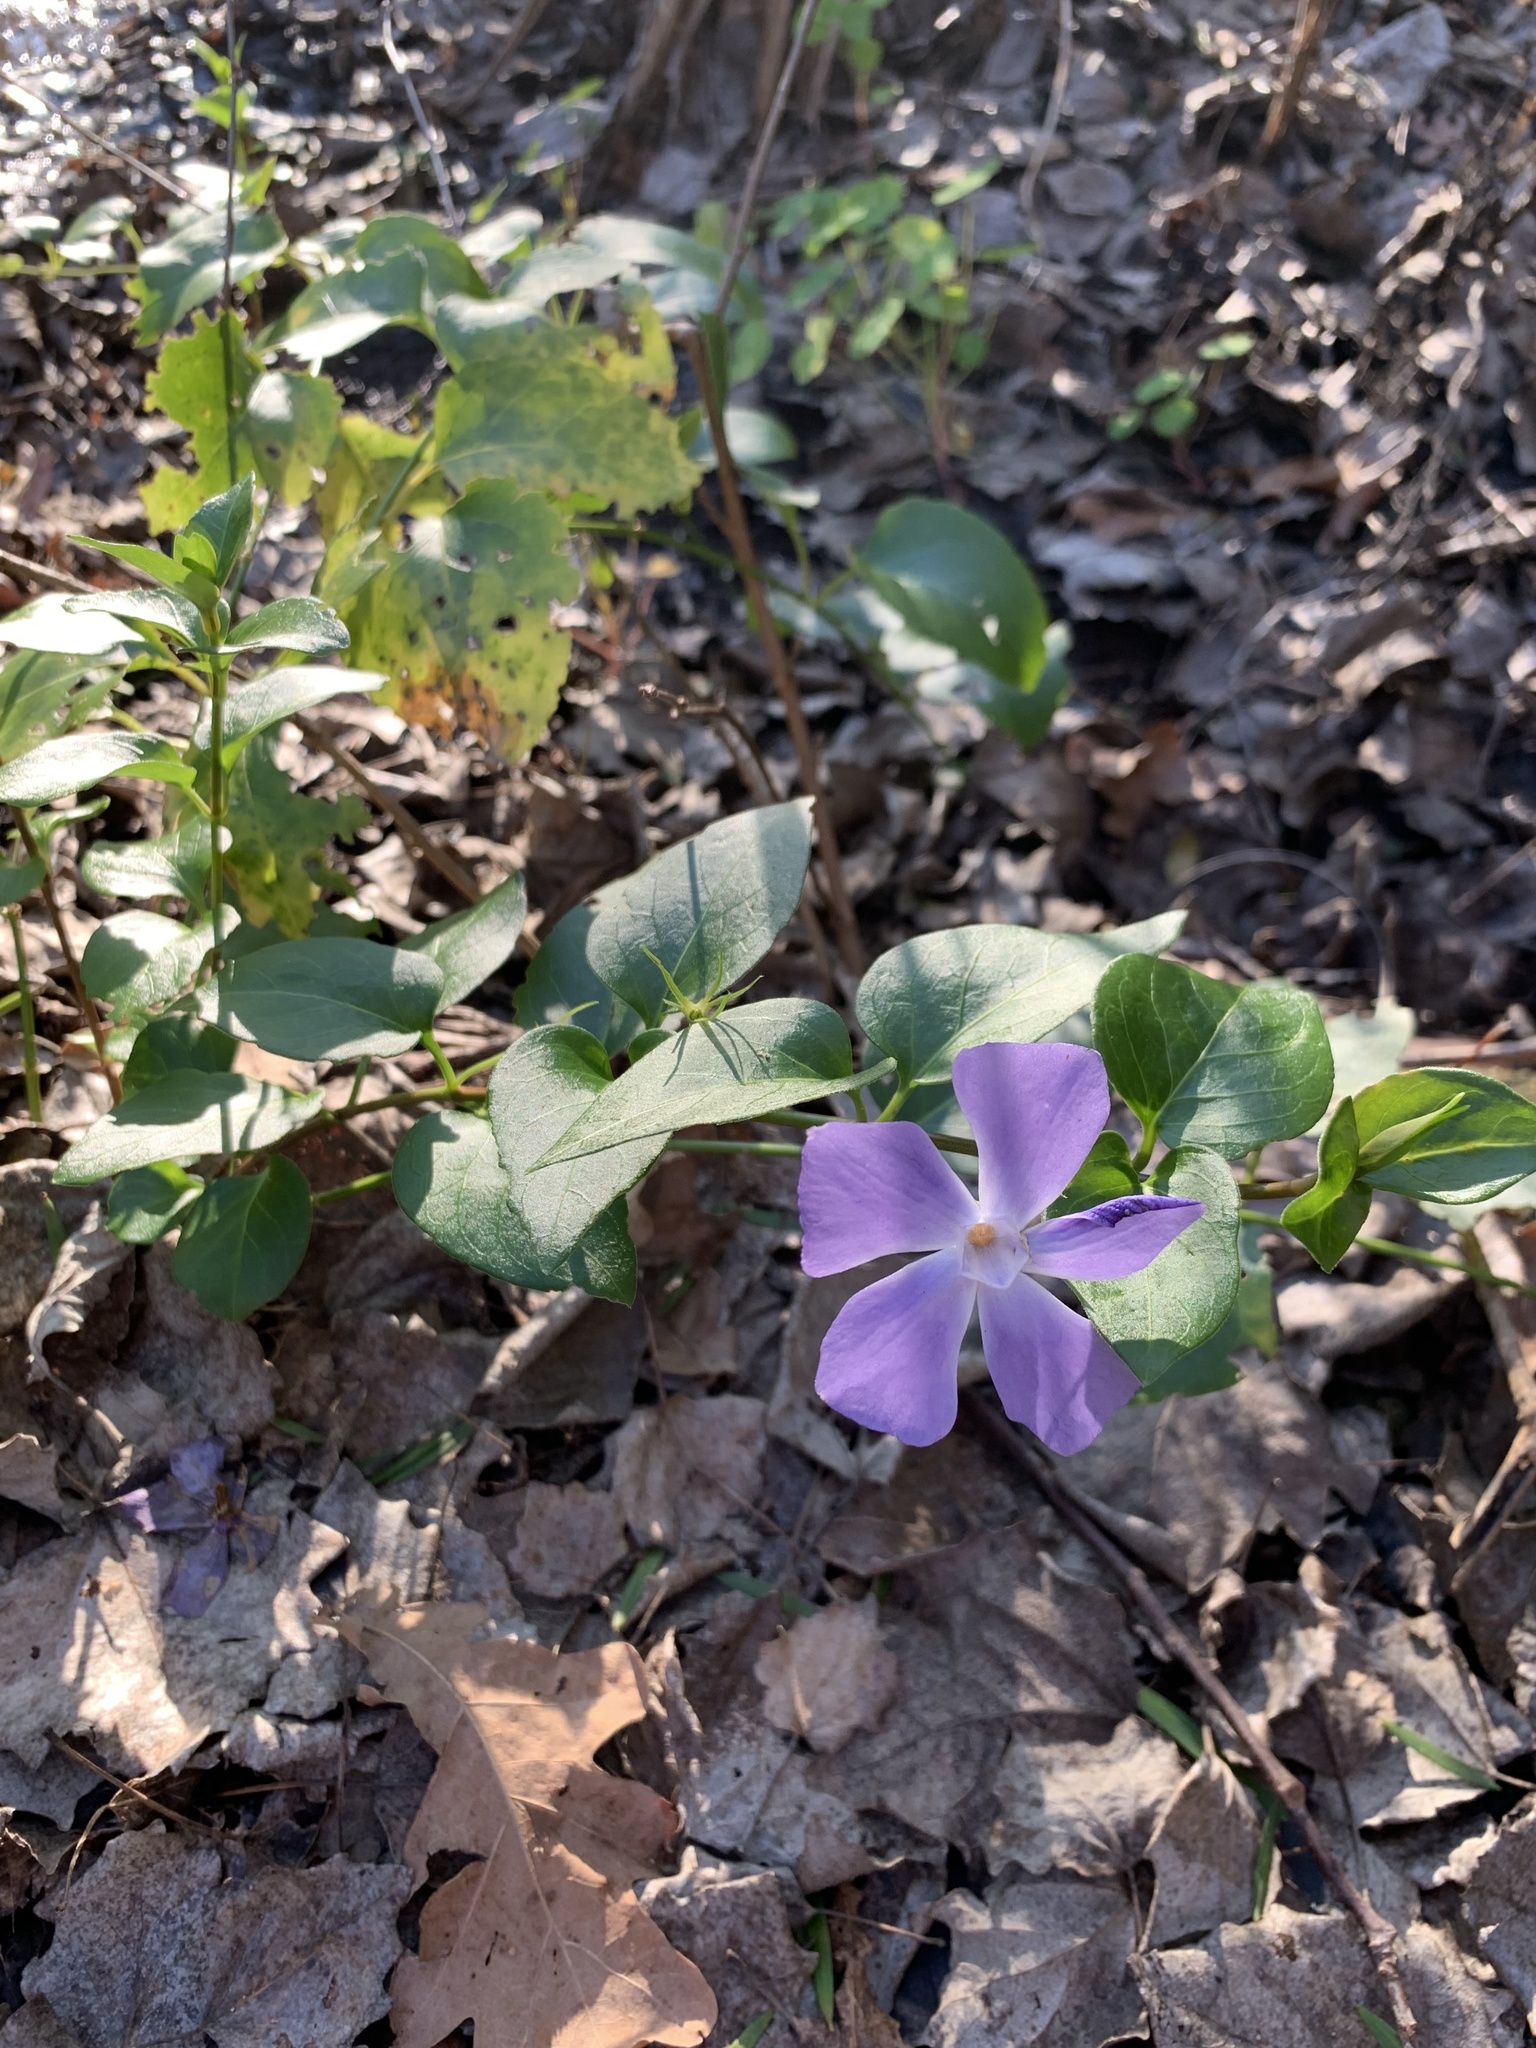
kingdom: Plantae
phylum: Tracheophyta
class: Magnoliopsida
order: Gentianales
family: Apocynaceae
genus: Vinca
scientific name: Vinca major
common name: Greater periwinkle
